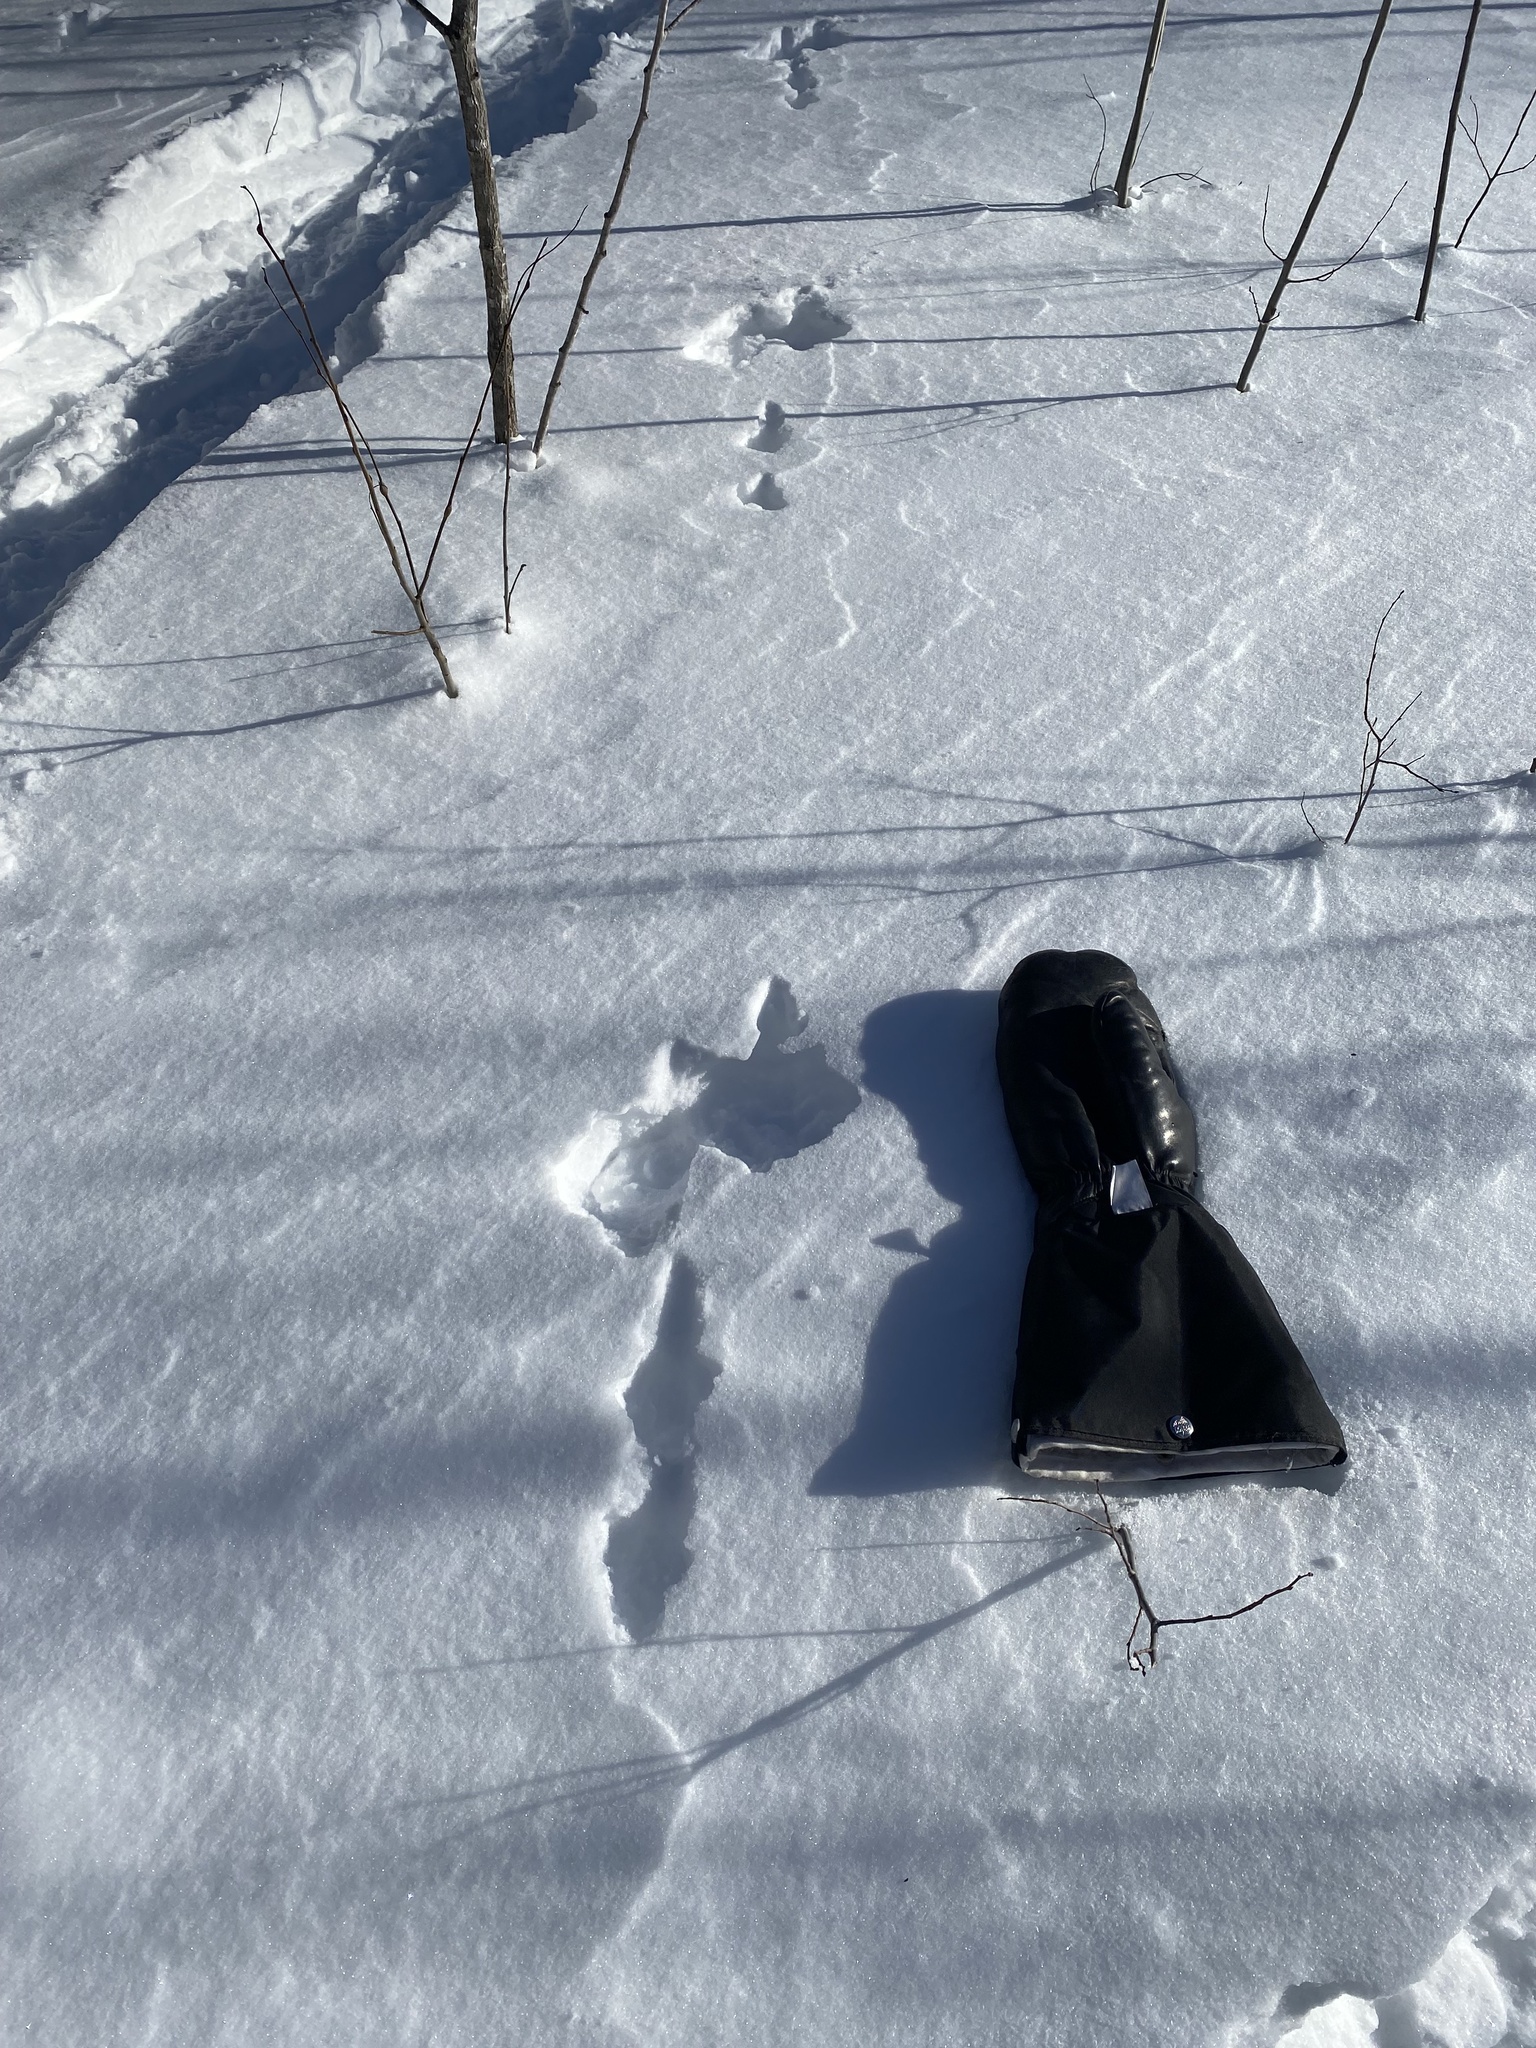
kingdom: Animalia
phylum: Chordata
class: Mammalia
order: Lagomorpha
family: Leporidae
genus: Lepus
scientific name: Lepus americanus
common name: Snowshoe hare
